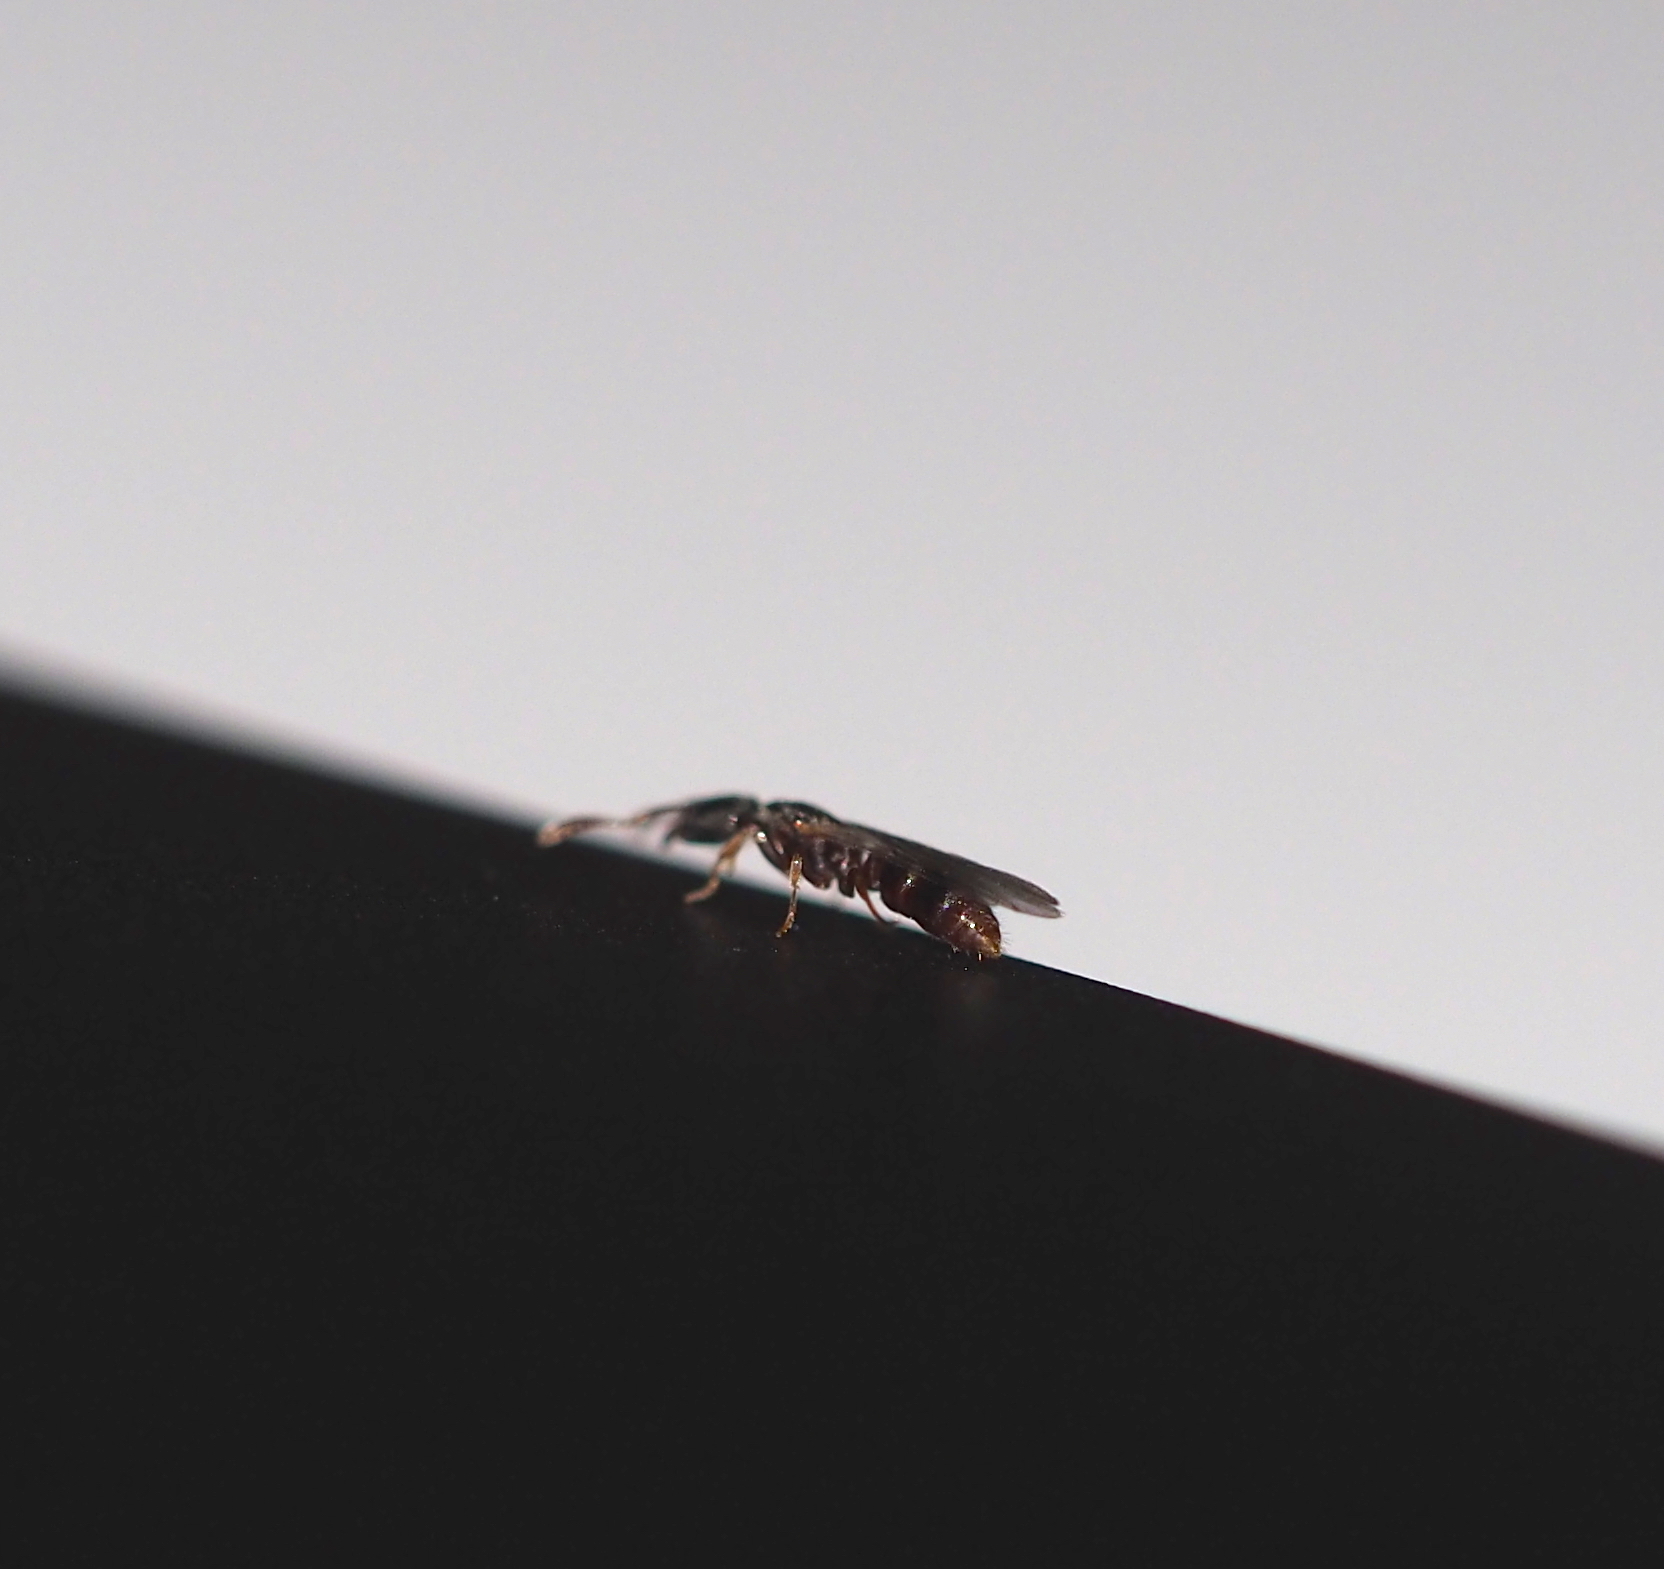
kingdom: Animalia
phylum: Arthropoda
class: Insecta
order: Hymenoptera
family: Formicidae
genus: Ponera
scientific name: Ponera testacea
